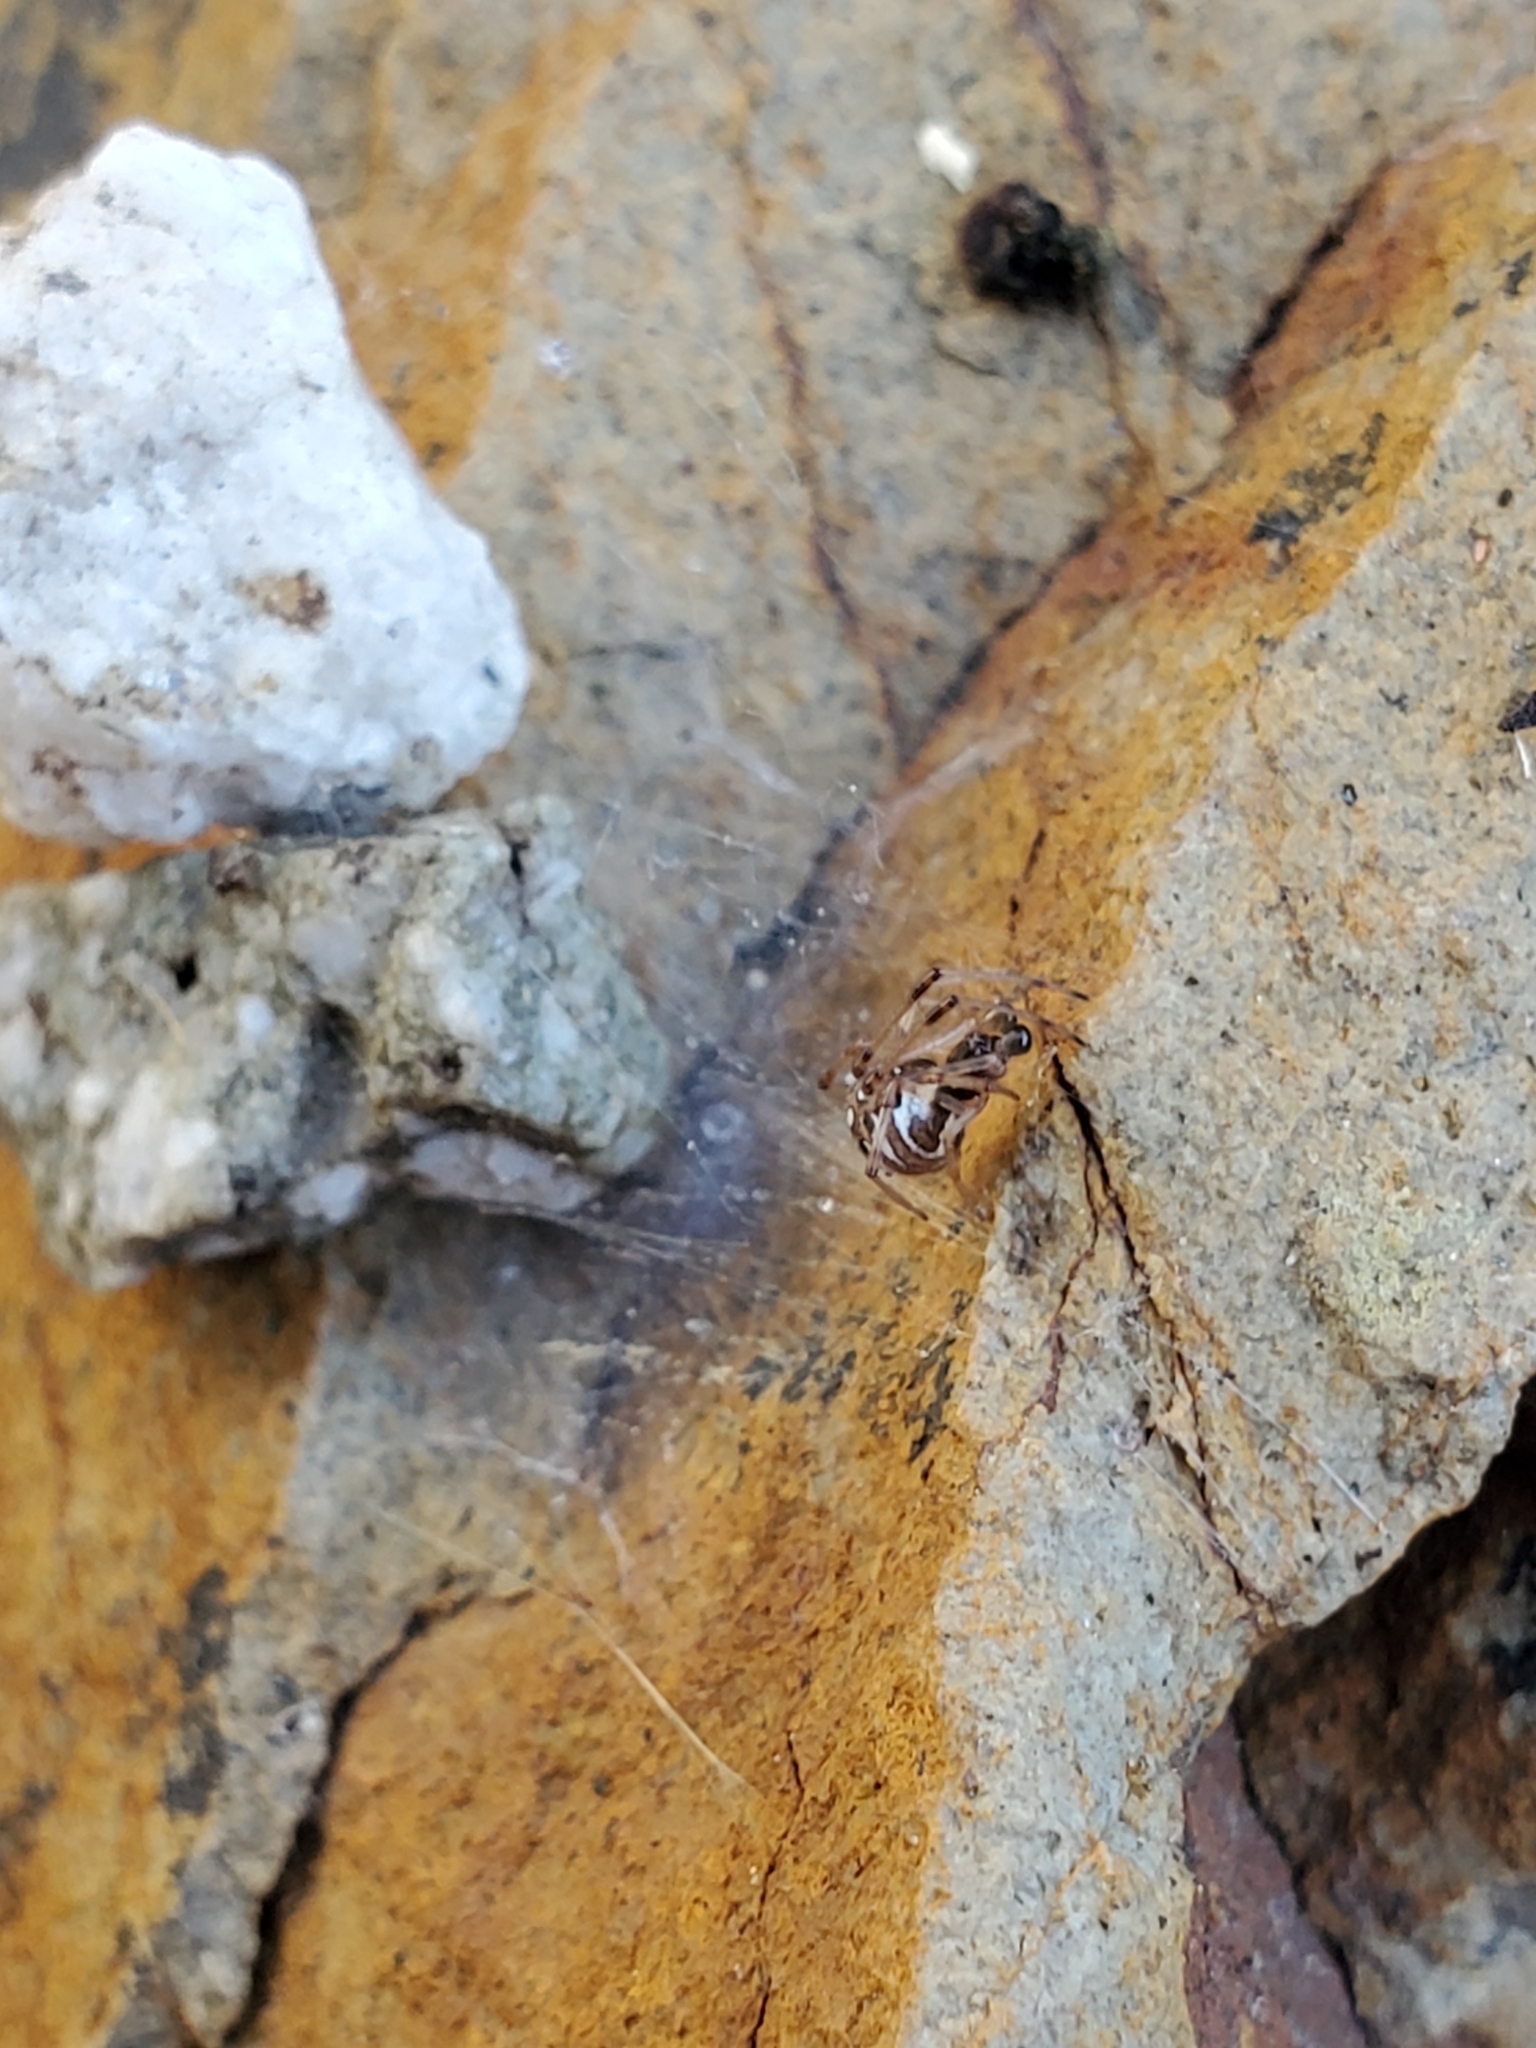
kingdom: Animalia
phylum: Arthropoda
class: Arachnida
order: Araneae
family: Theridiidae
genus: Latrodectus
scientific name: Latrodectus geometricus
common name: Brown widow spider
